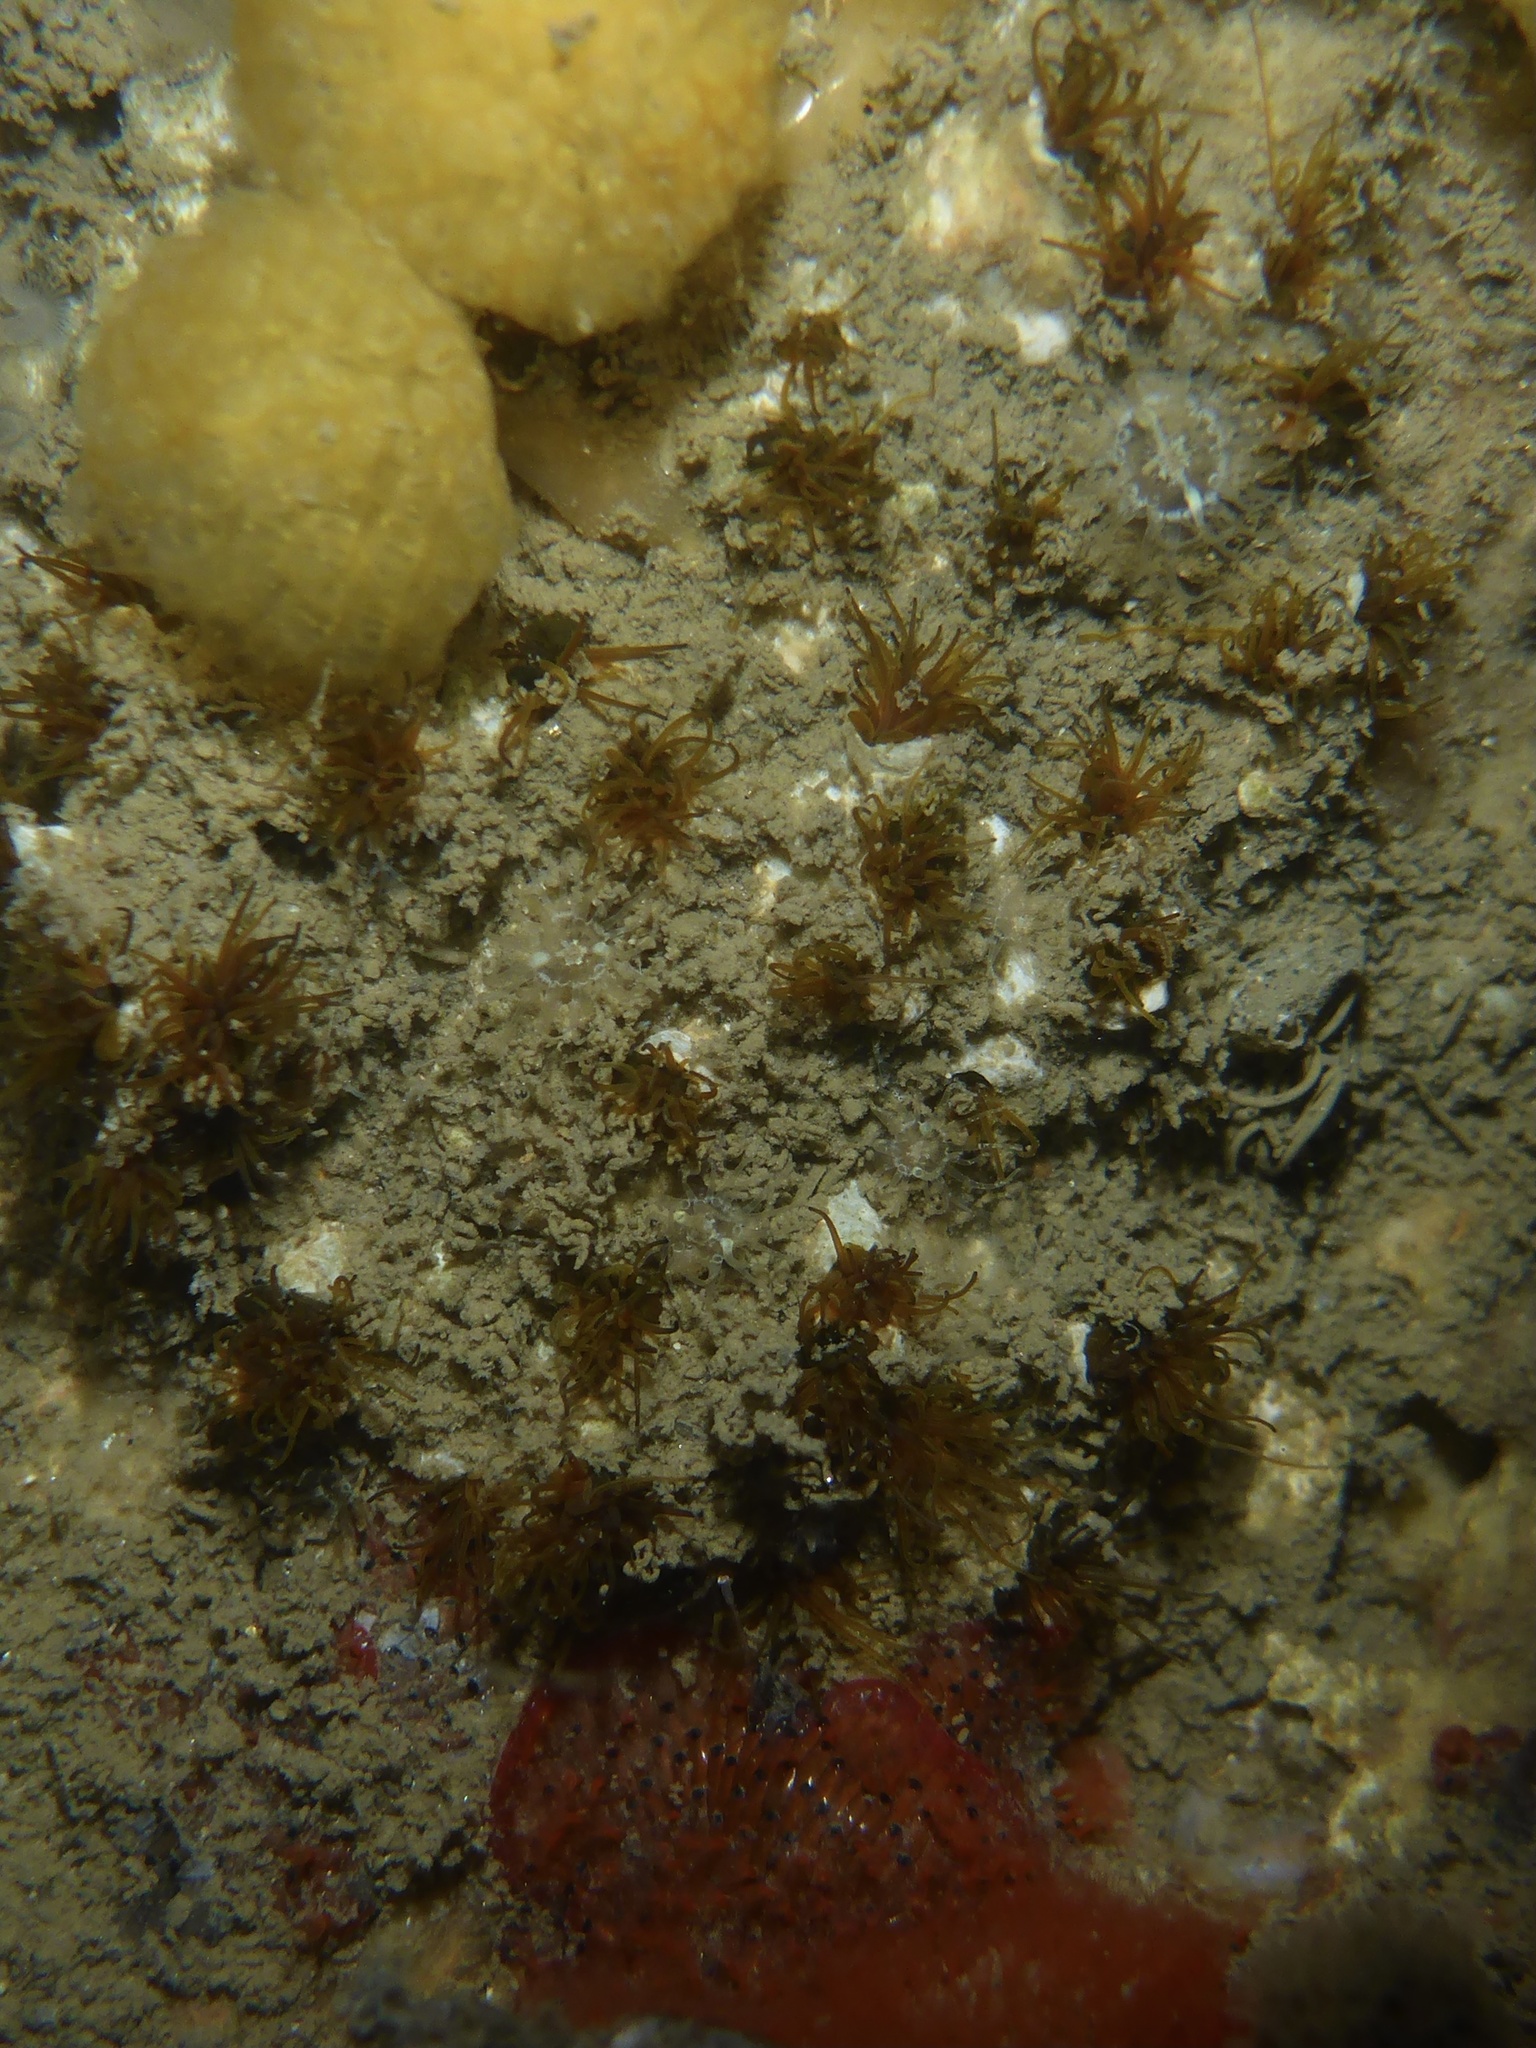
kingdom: Animalia
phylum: Annelida
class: Polychaeta
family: Cirratulidae
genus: Dodecaceria
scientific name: Dodecaceria pacifica
